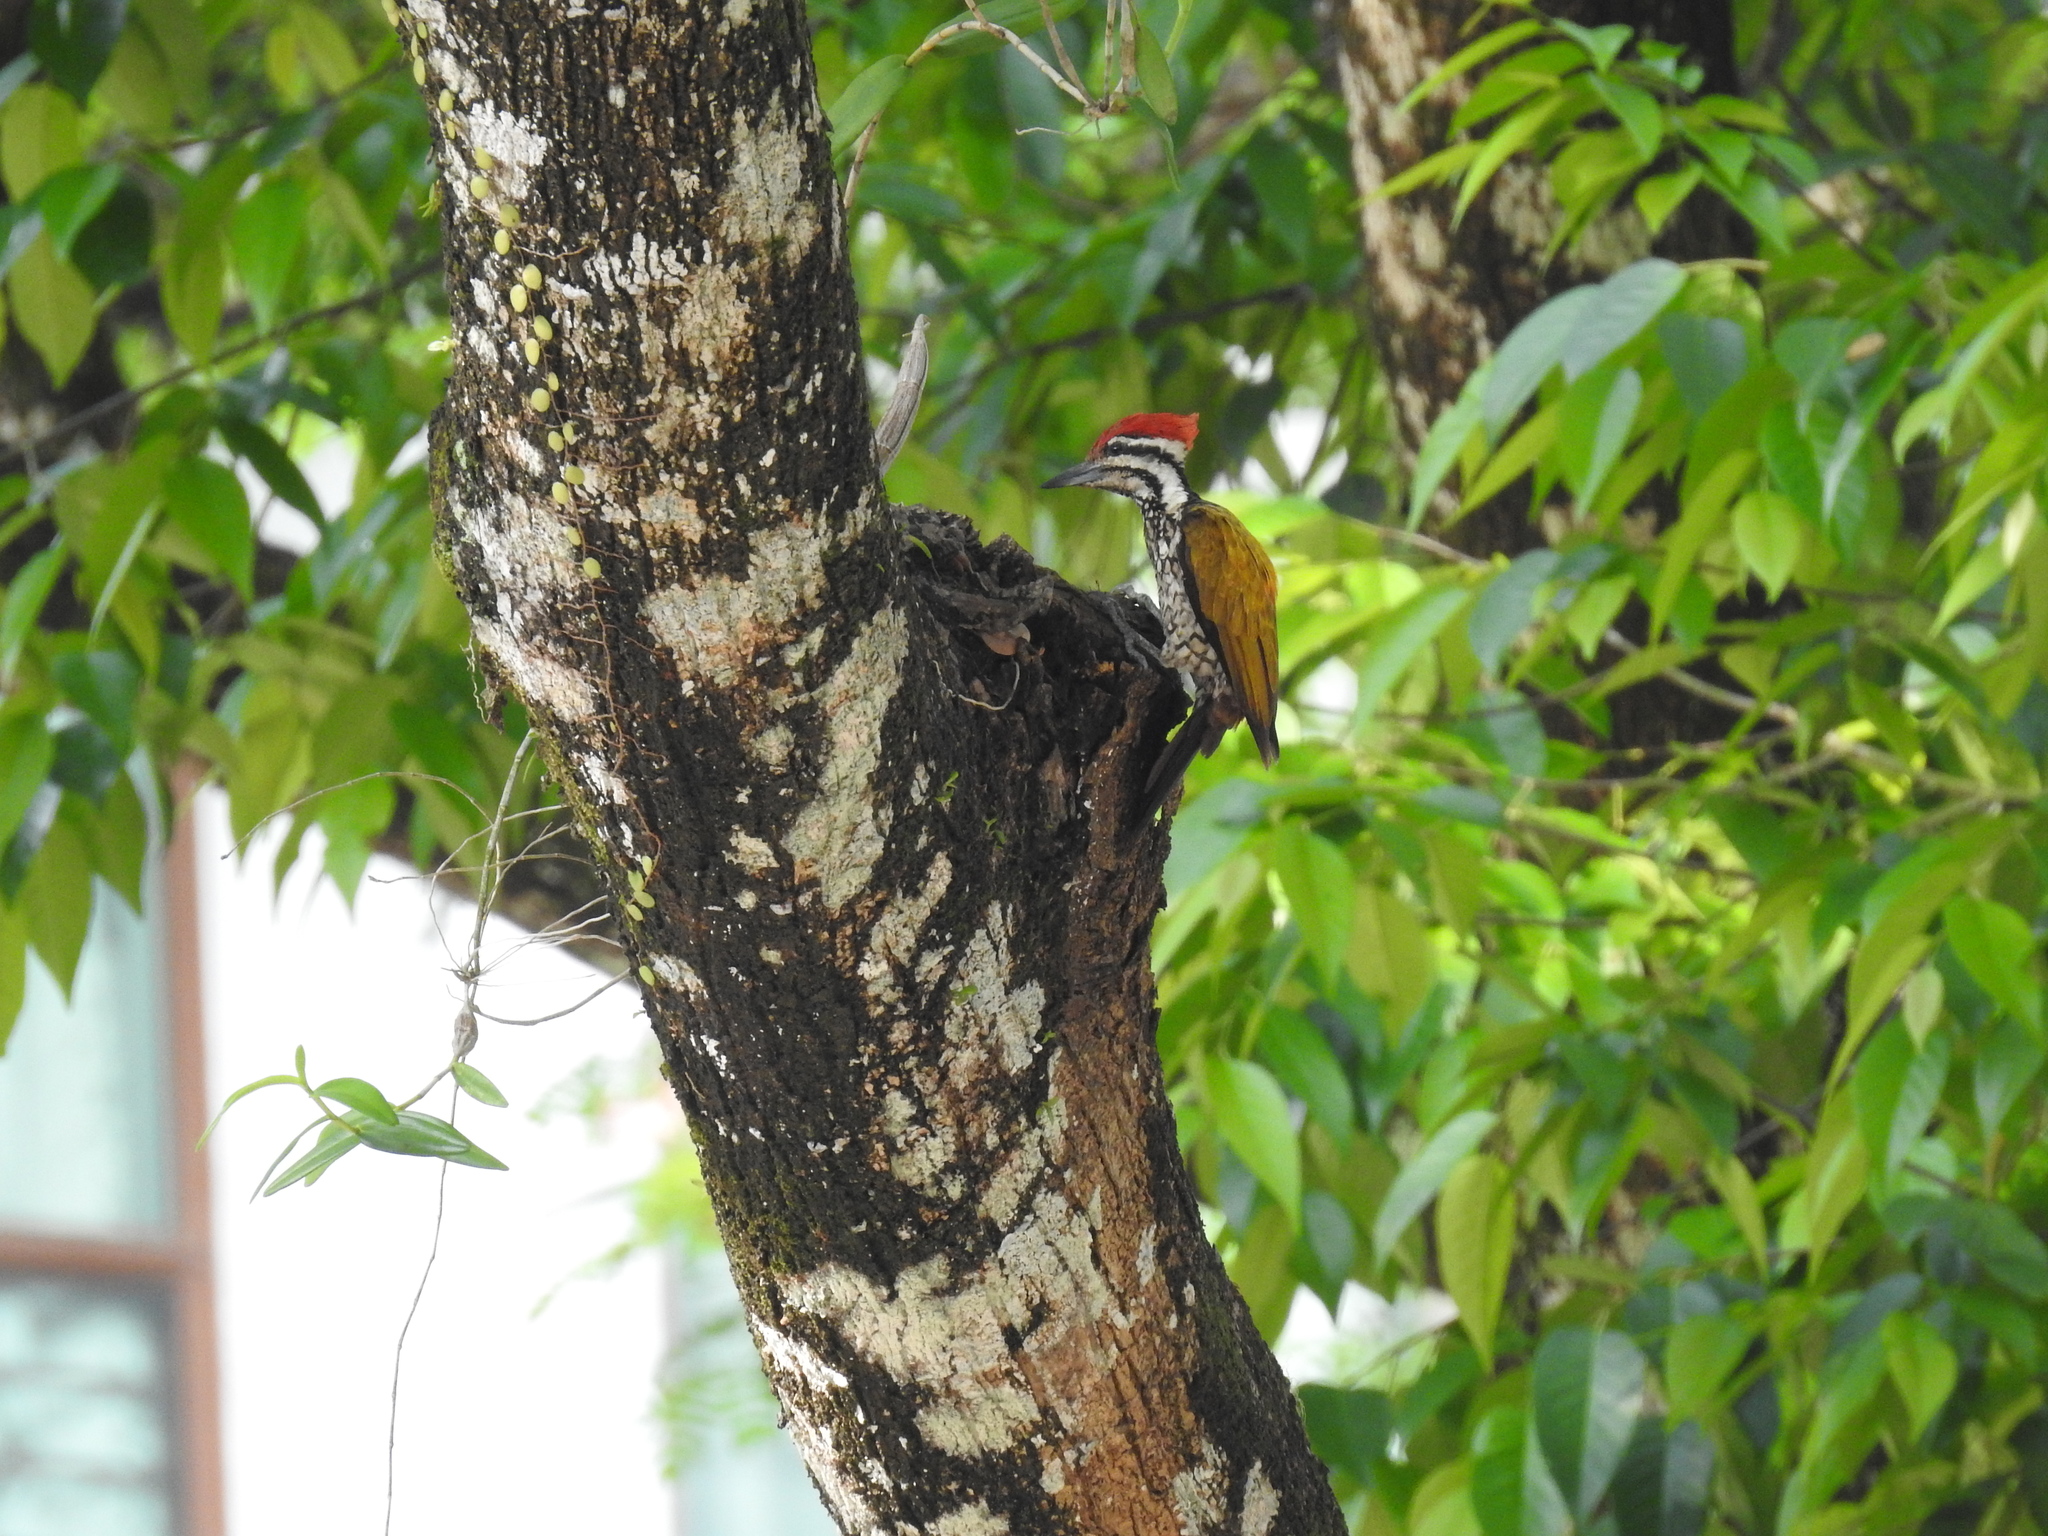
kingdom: Animalia
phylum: Chordata
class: Aves
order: Piciformes
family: Picidae
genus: Dinopium
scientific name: Dinopium javanense
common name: Common flameback
